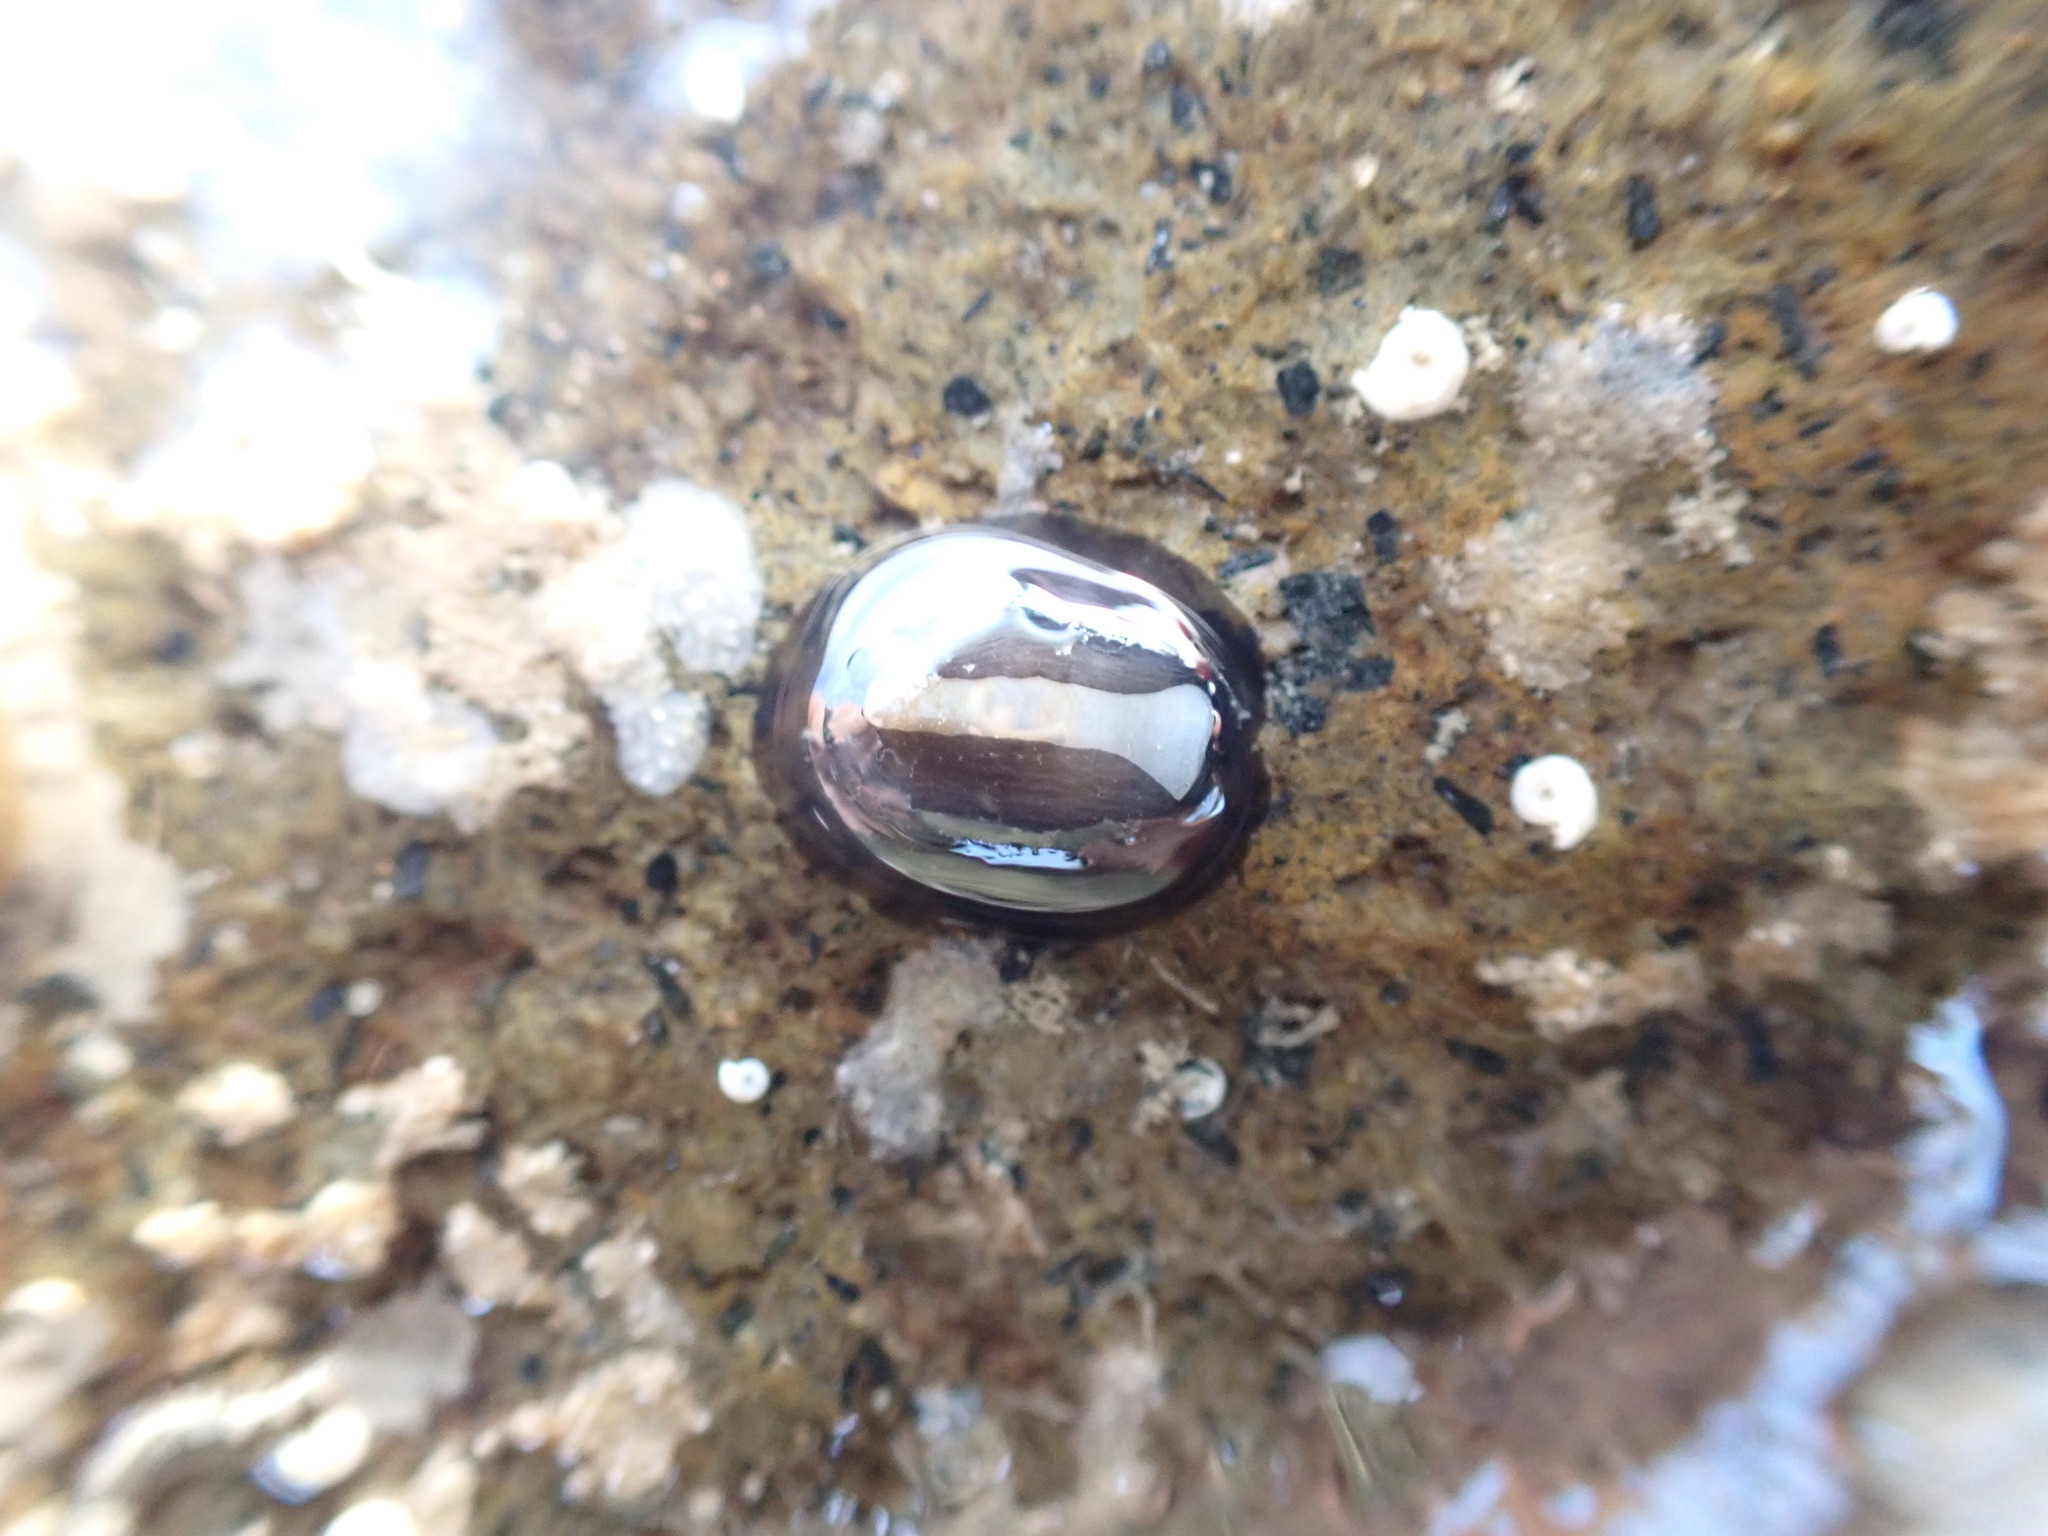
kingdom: Animalia
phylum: Mollusca
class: Gastropoda
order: Lepetellida
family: Fissurellidae
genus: Scutus
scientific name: Scutus breviculus
